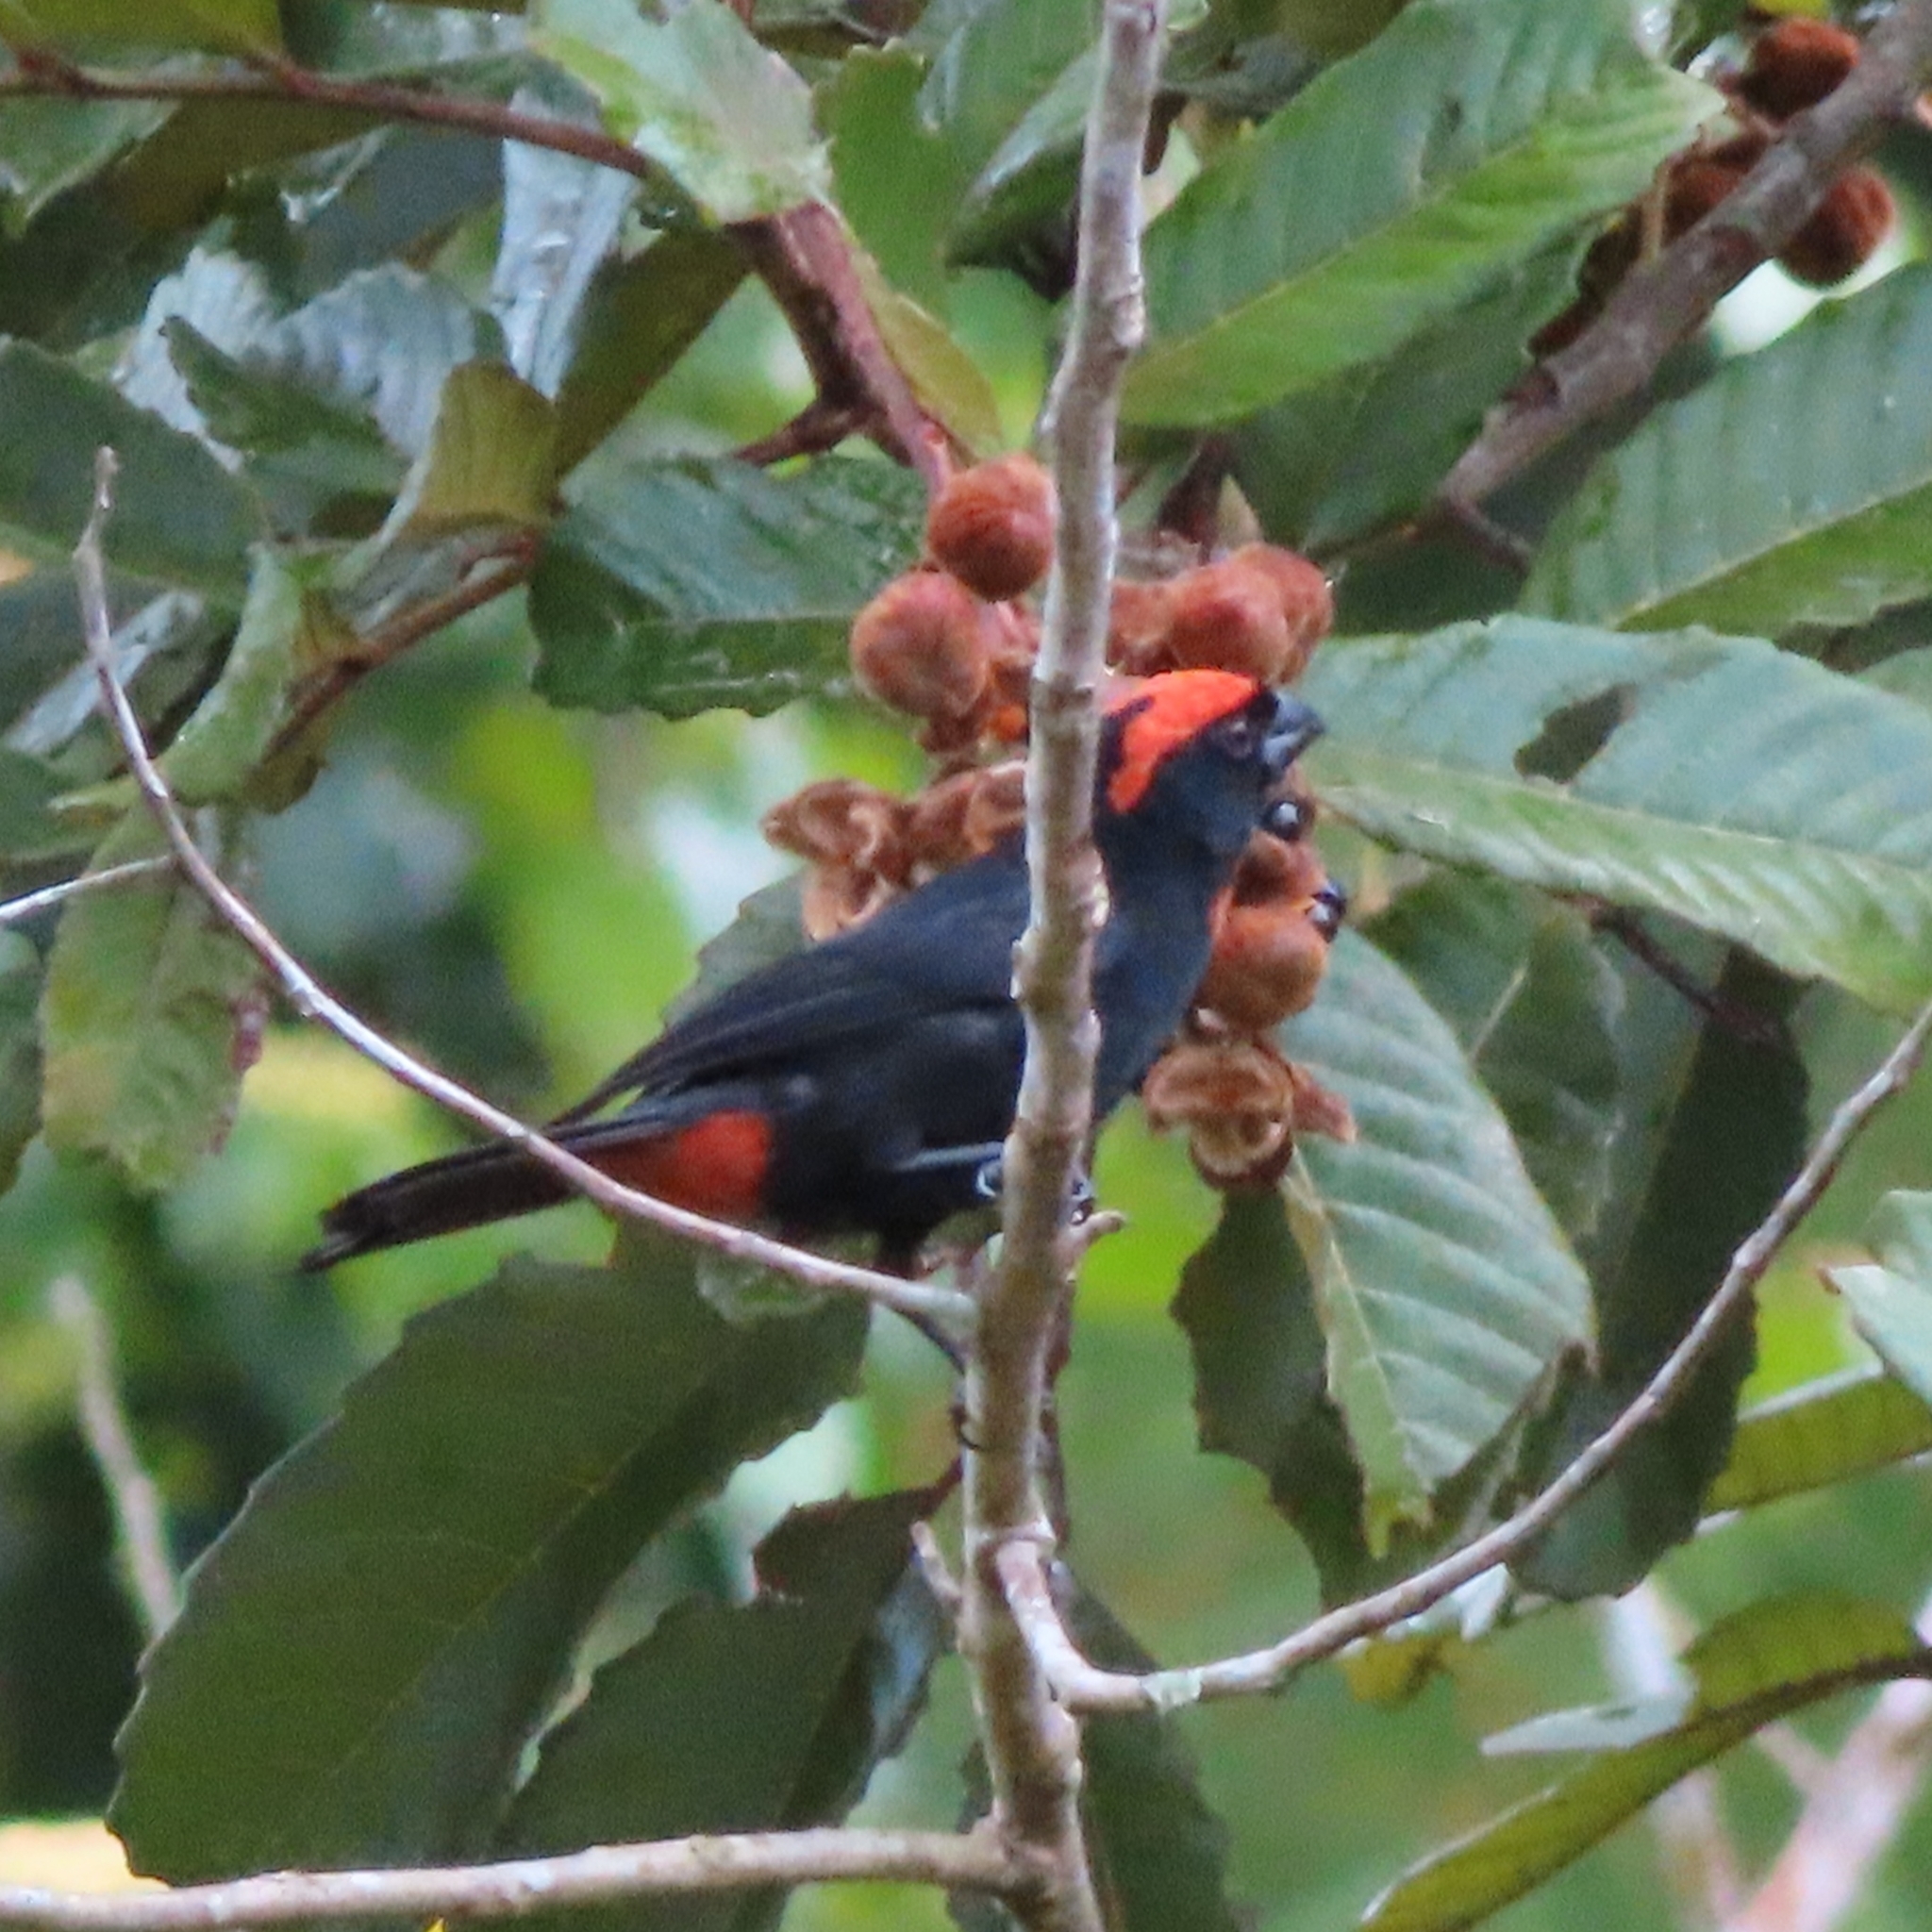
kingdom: Animalia
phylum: Chordata
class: Aves
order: Passeriformes
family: Thraupidae
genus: Melopyrrha
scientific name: Melopyrrha portoricensis
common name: Puerto rican bullfinch
